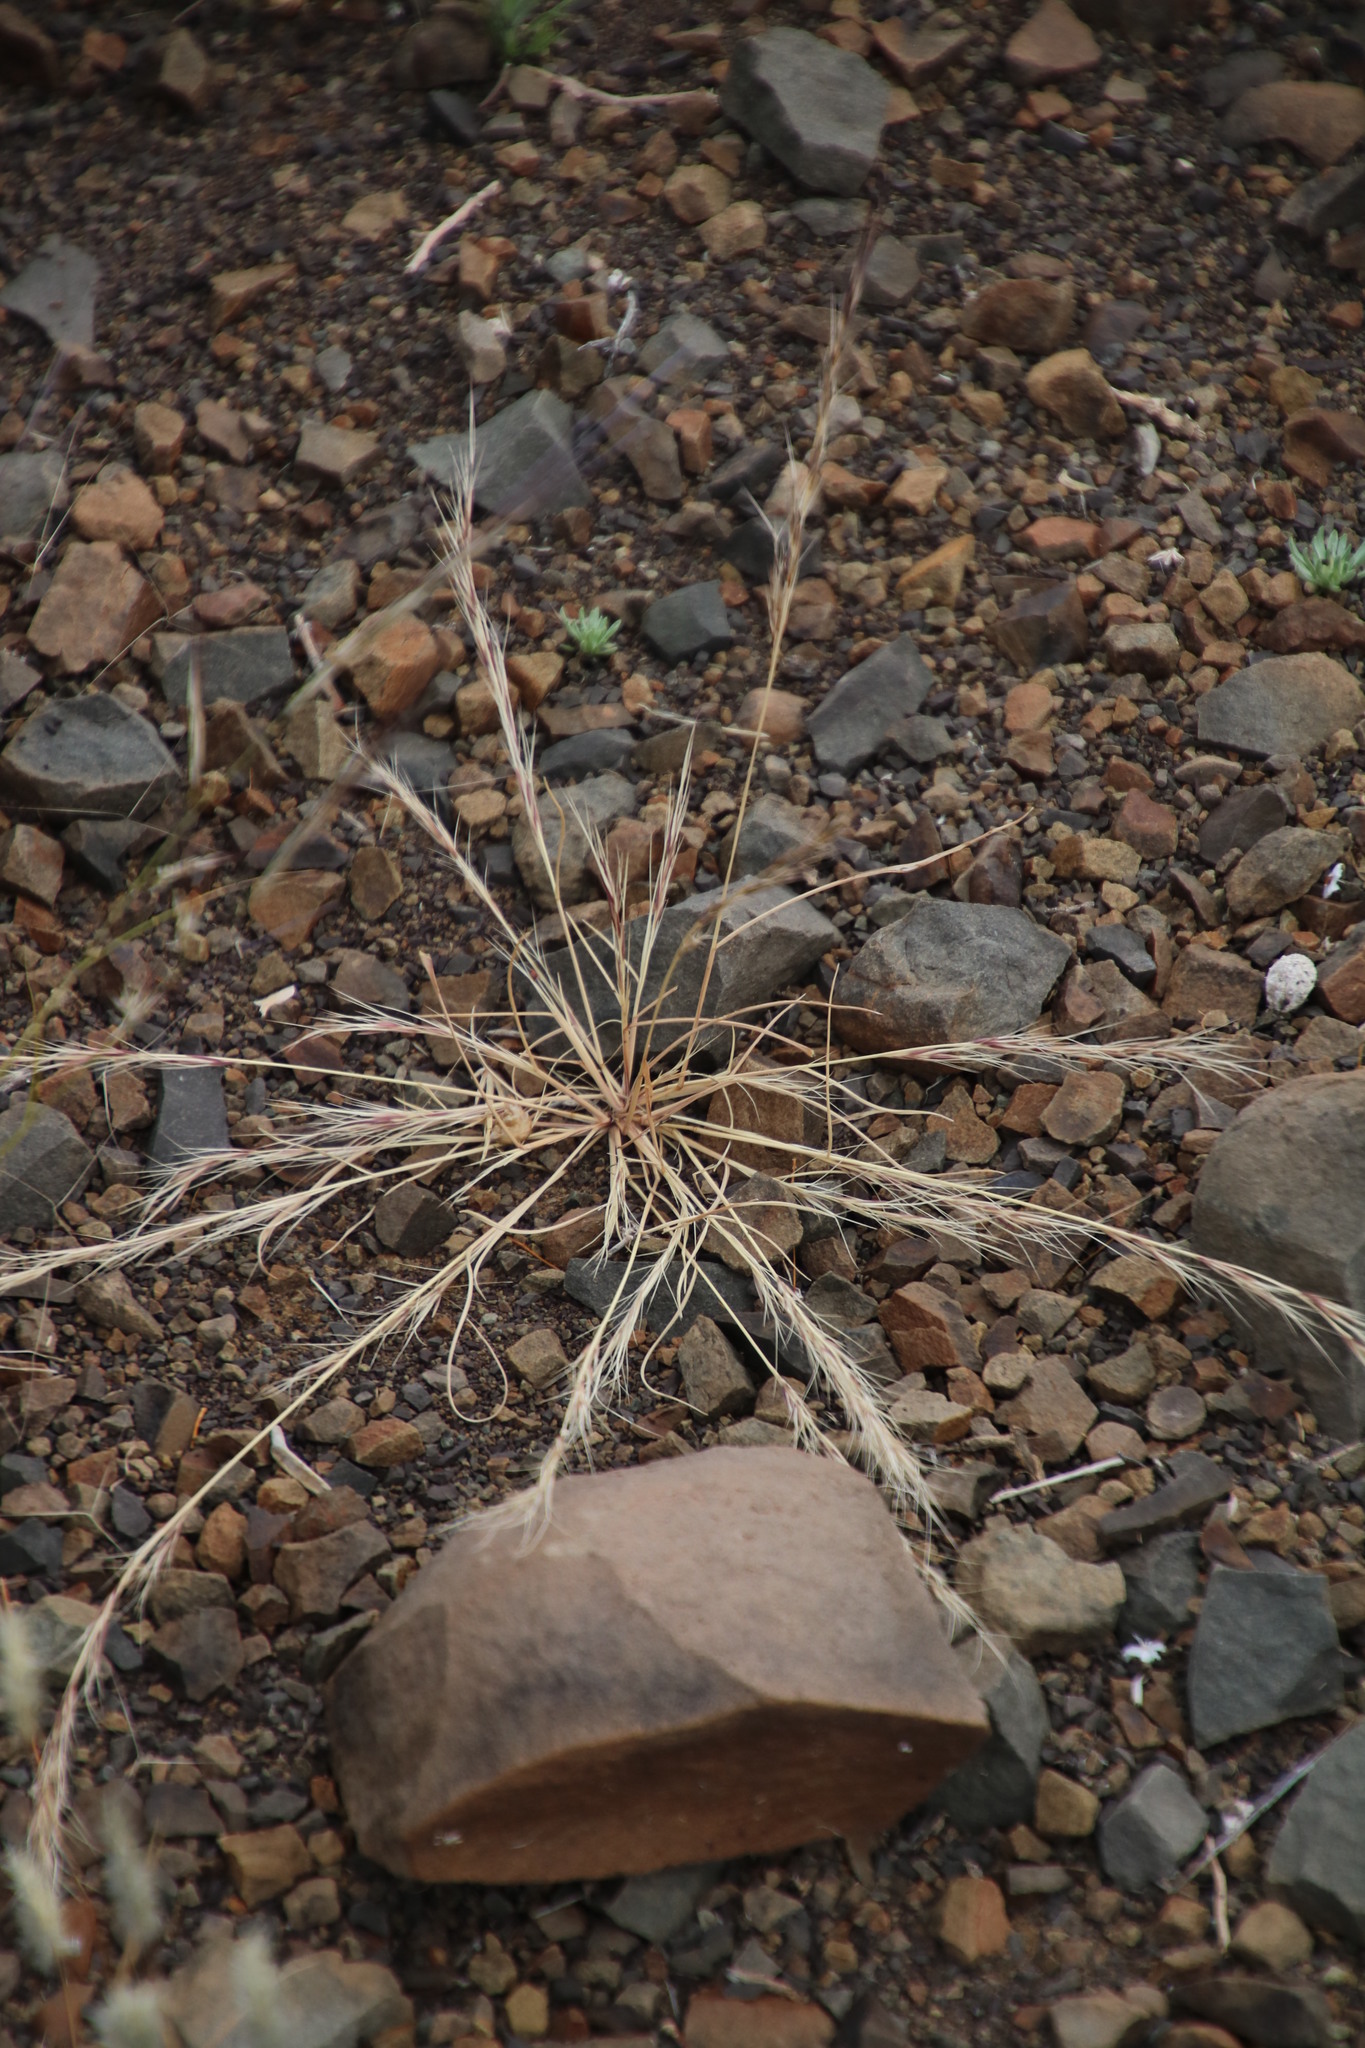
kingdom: Plantae
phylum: Tracheophyta
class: Liliopsida
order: Poales
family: Poaceae
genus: Aristida
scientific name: Aristida adscensionis
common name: Sixweeks threeawn
